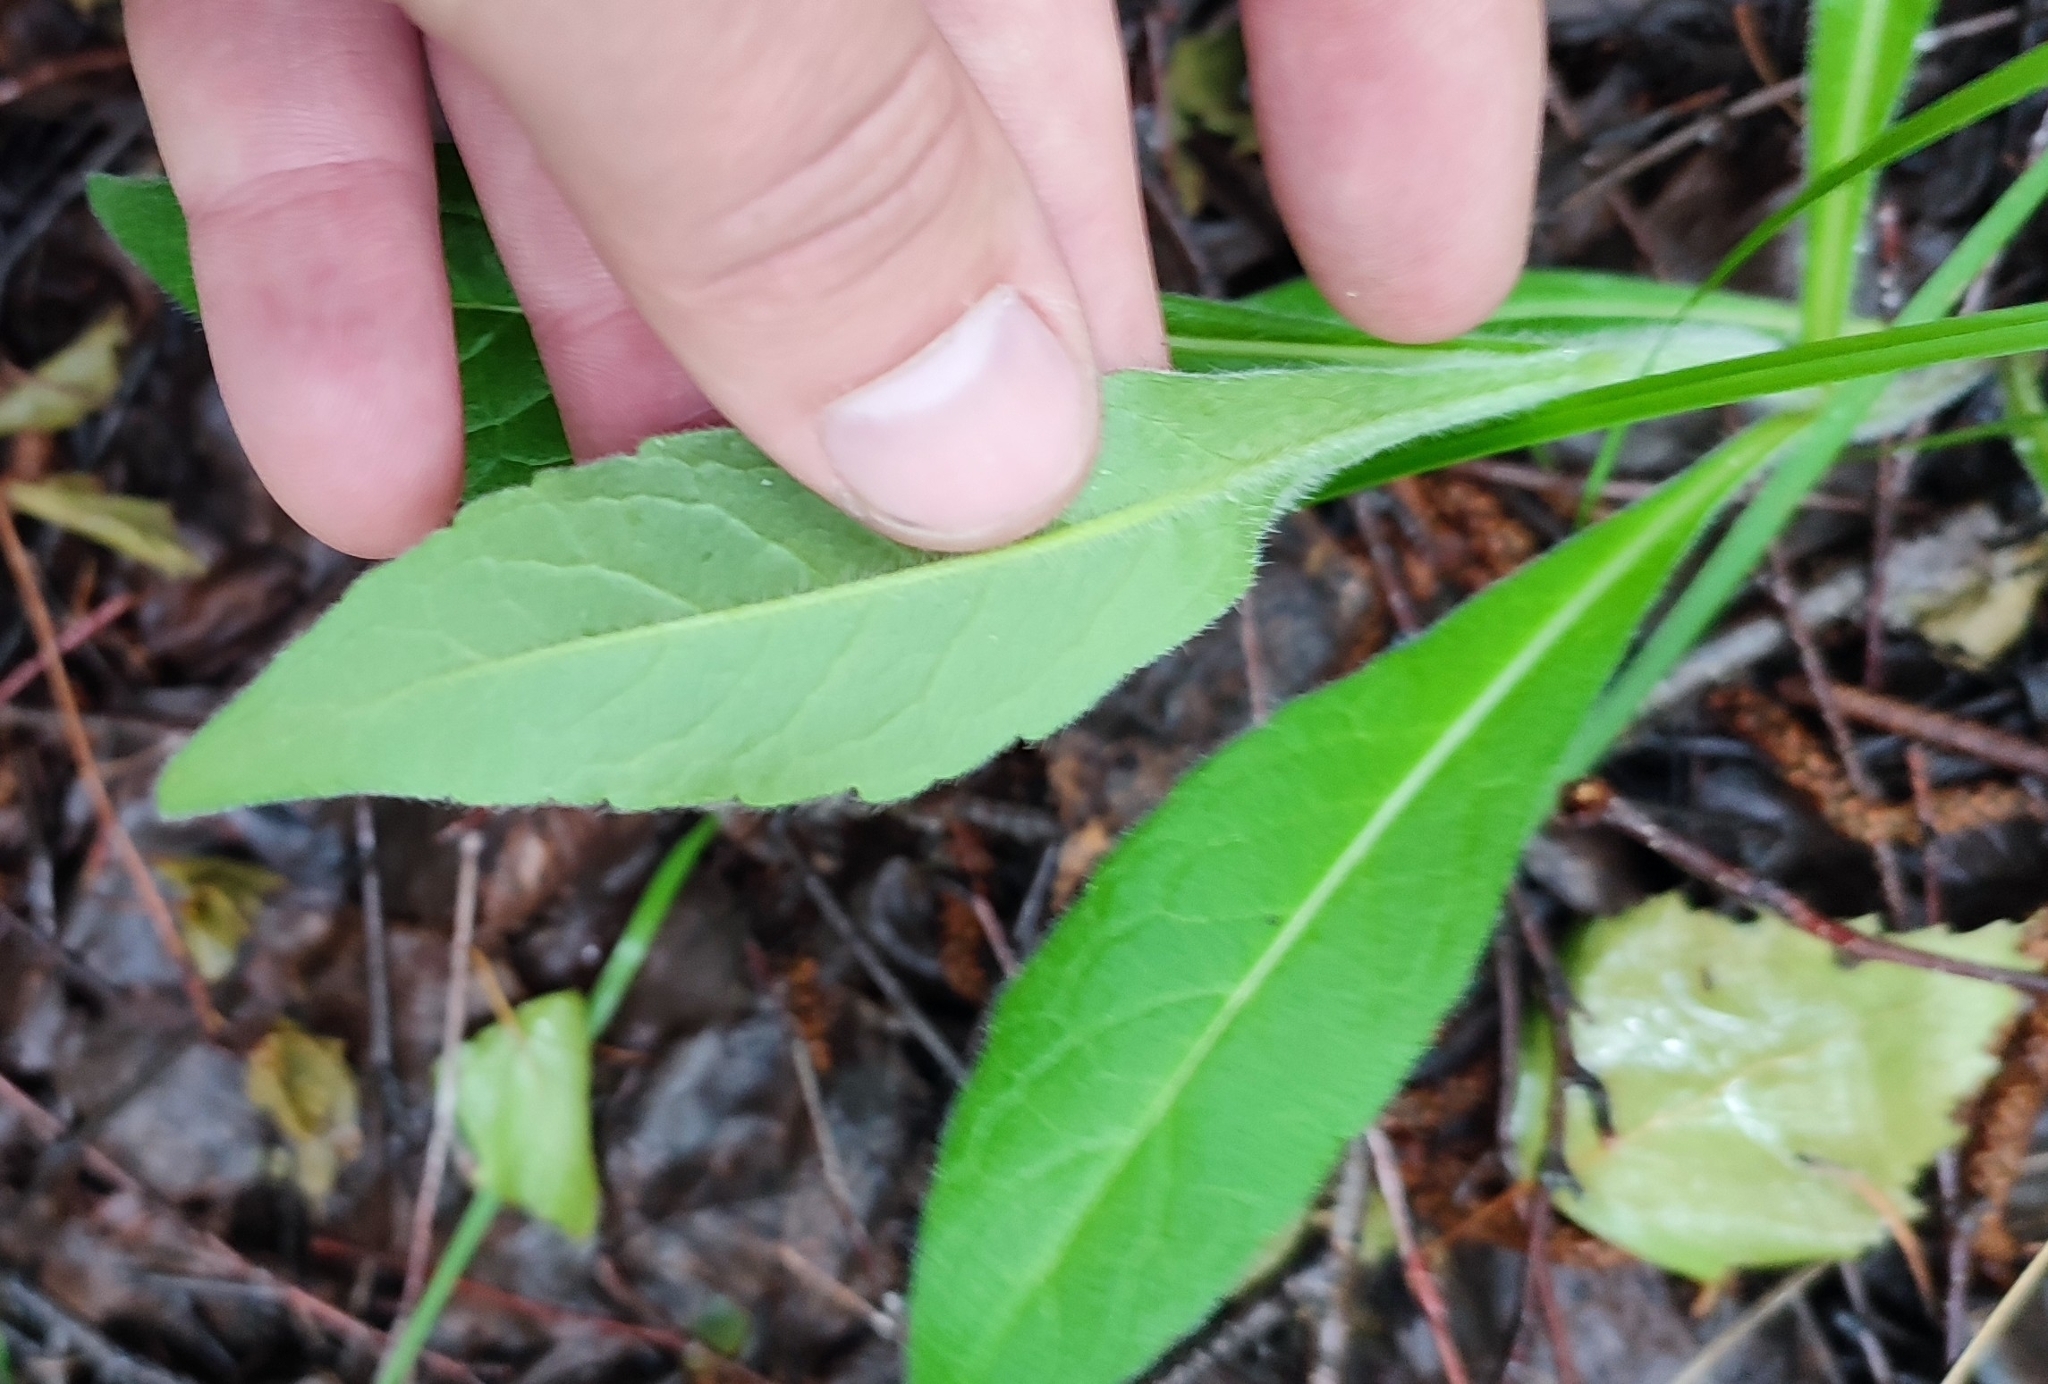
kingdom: Plantae
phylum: Tracheophyta
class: Magnoliopsida
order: Dipsacales
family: Caprifoliaceae
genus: Knautia
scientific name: Knautia arvensis
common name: Field scabiosa
